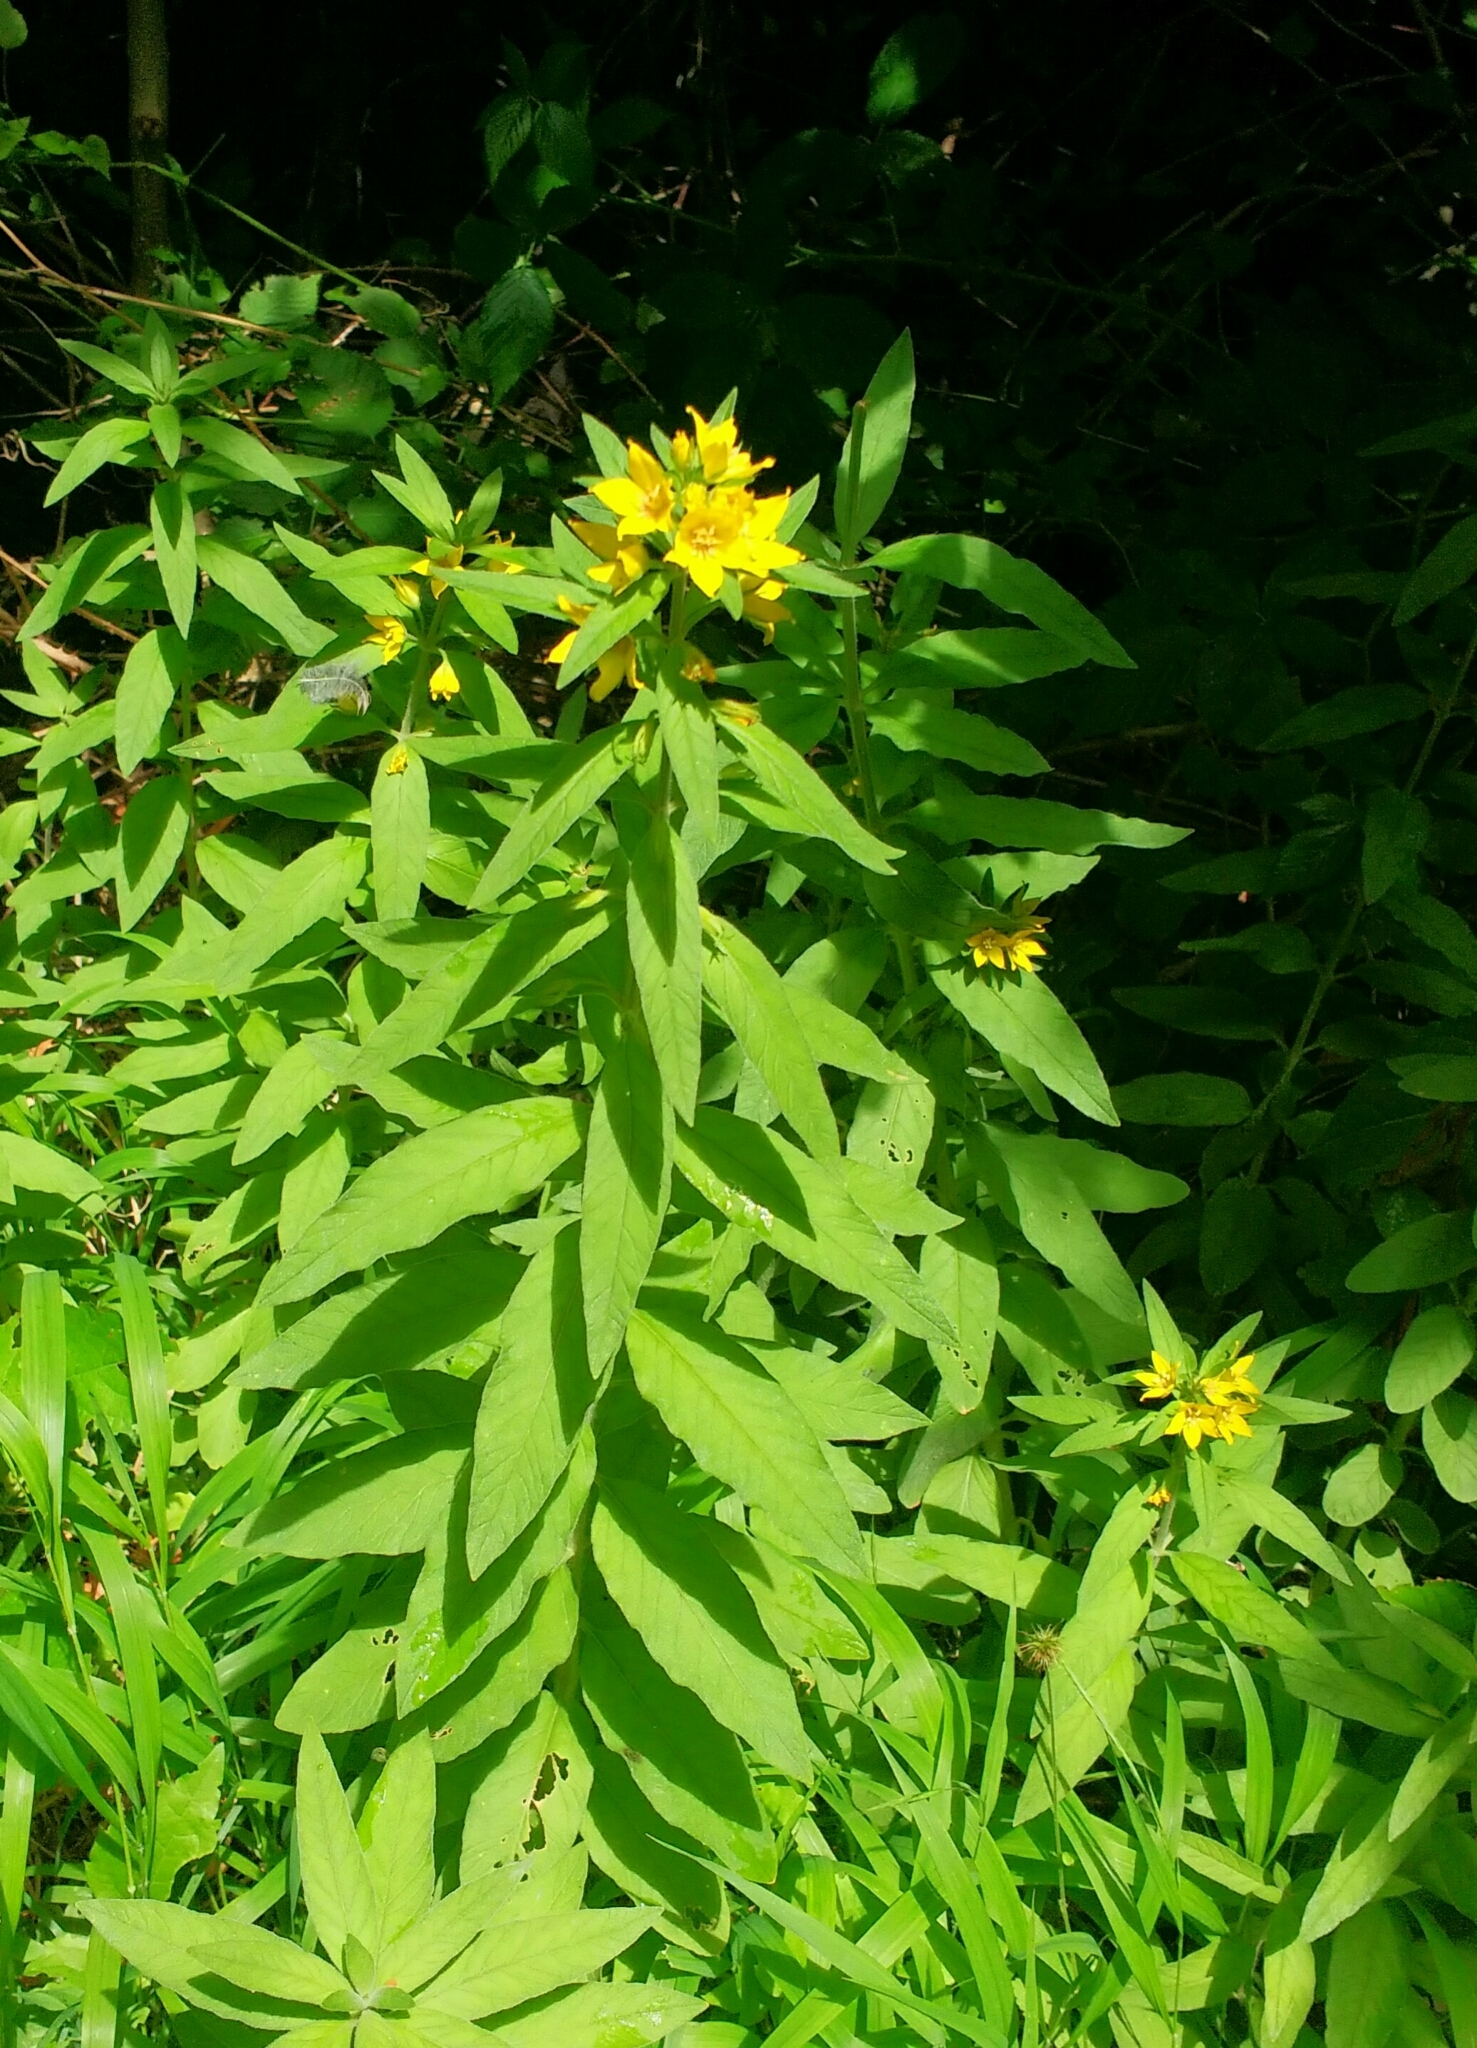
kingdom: Plantae
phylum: Tracheophyta
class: Magnoliopsida
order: Ericales
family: Primulaceae
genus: Lysimachia
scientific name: Lysimachia punctata
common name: Dotted loosestrife
